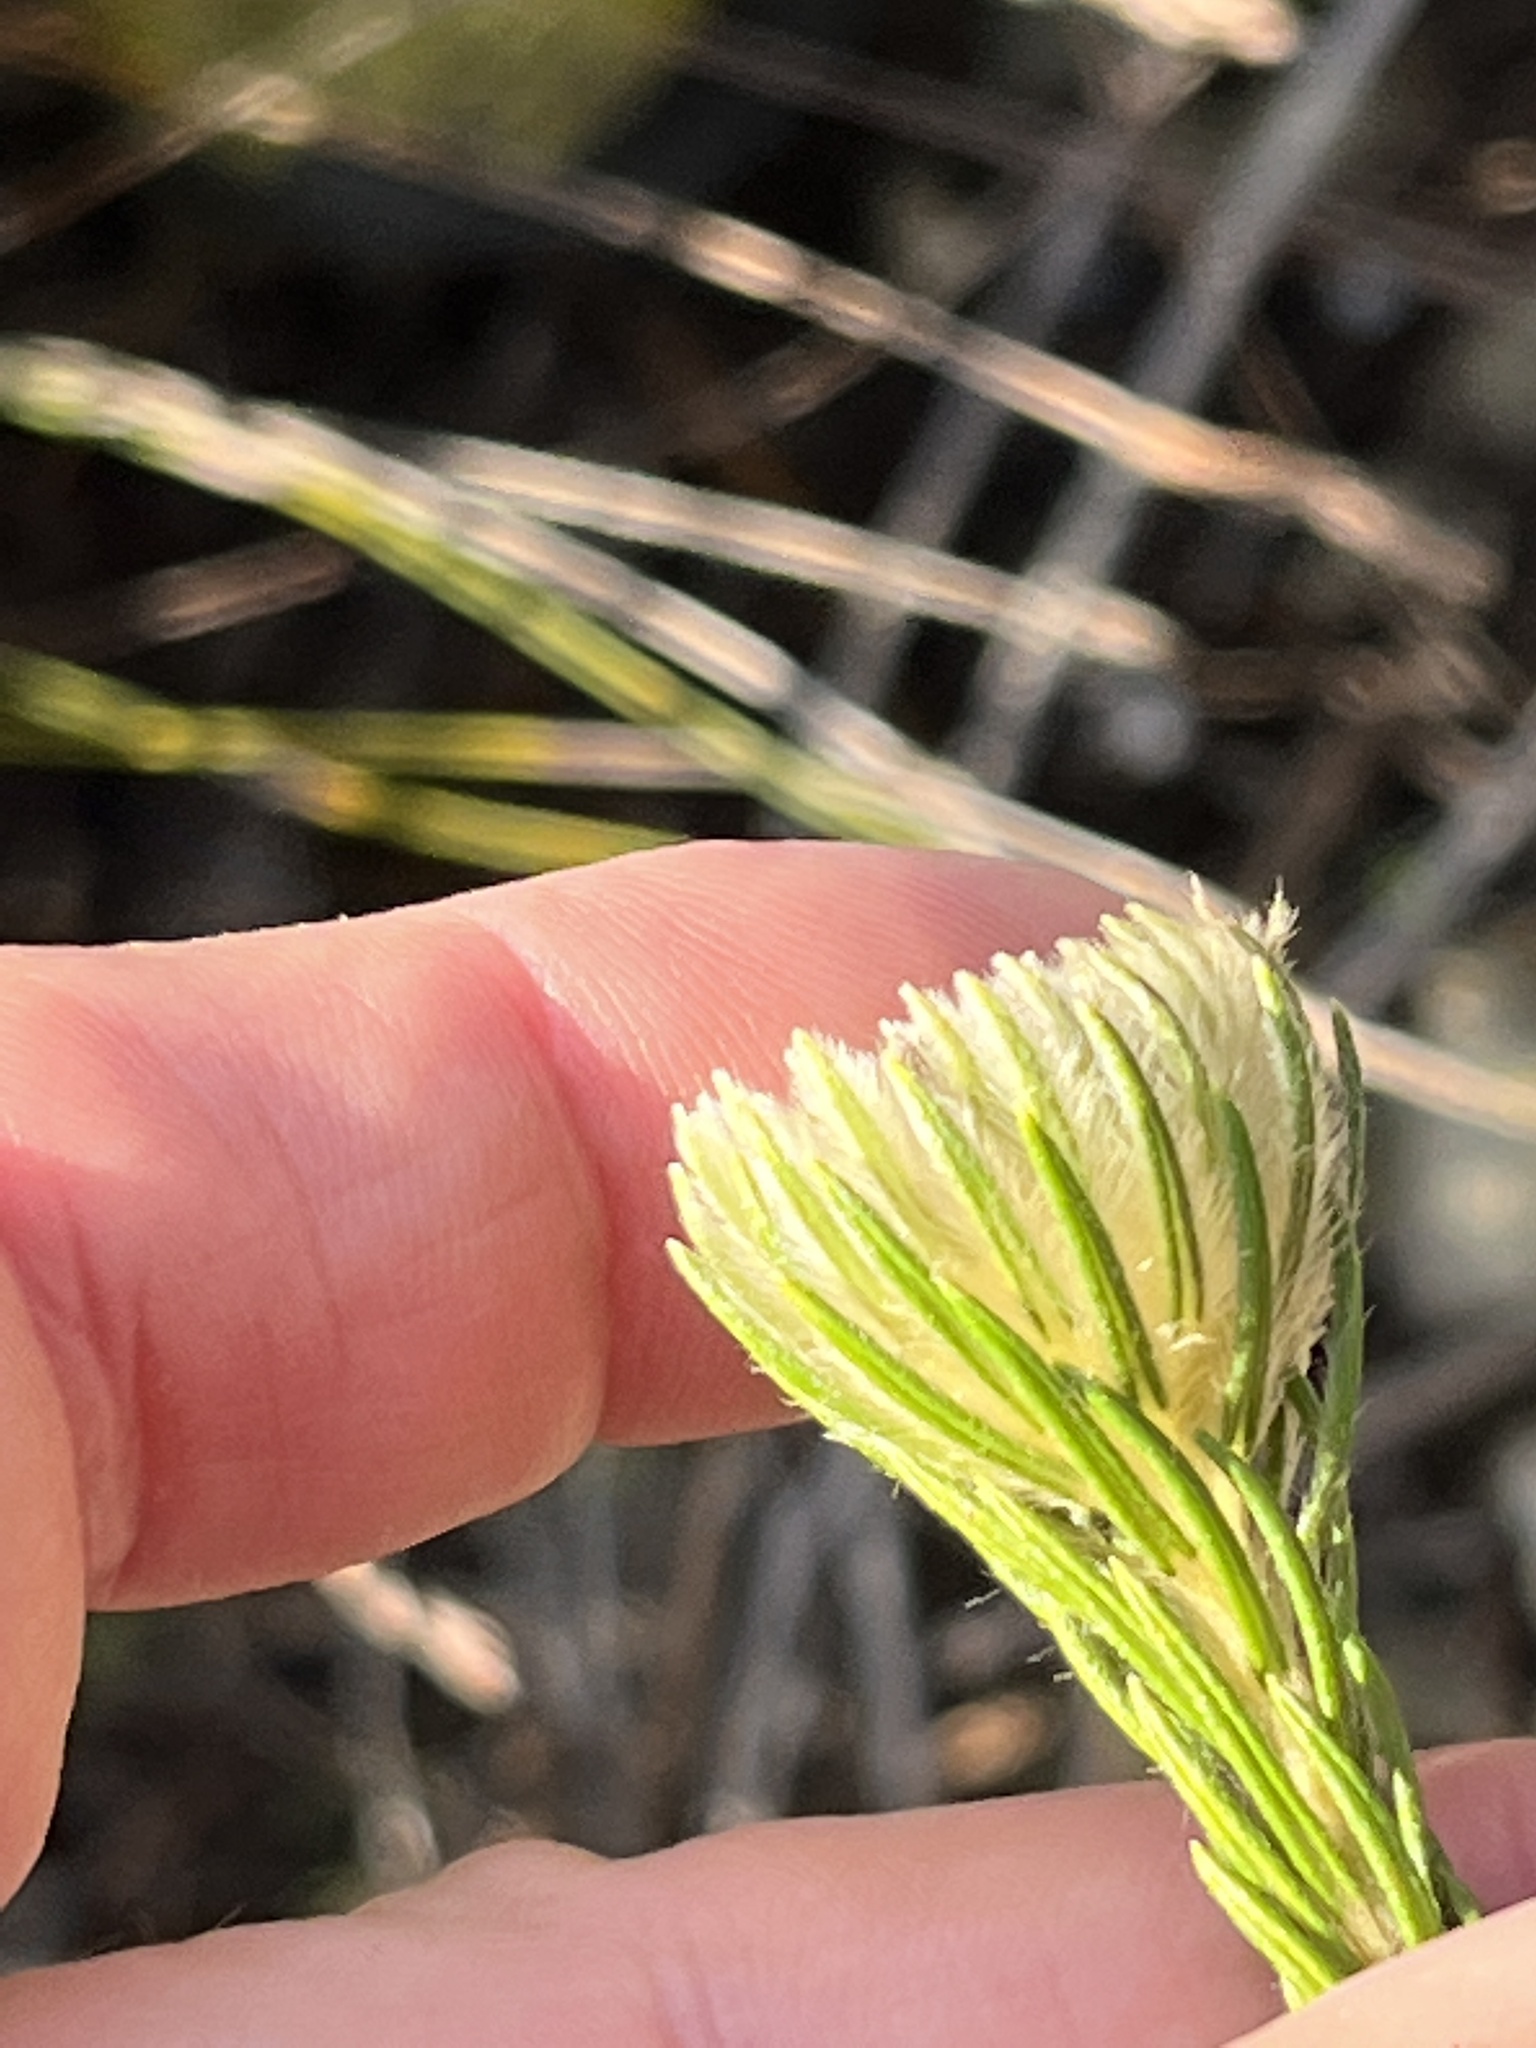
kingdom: Plantae
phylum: Tracheophyta
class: Magnoliopsida
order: Rosales
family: Rhamnaceae
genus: Phylica
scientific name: Phylica pubescens
